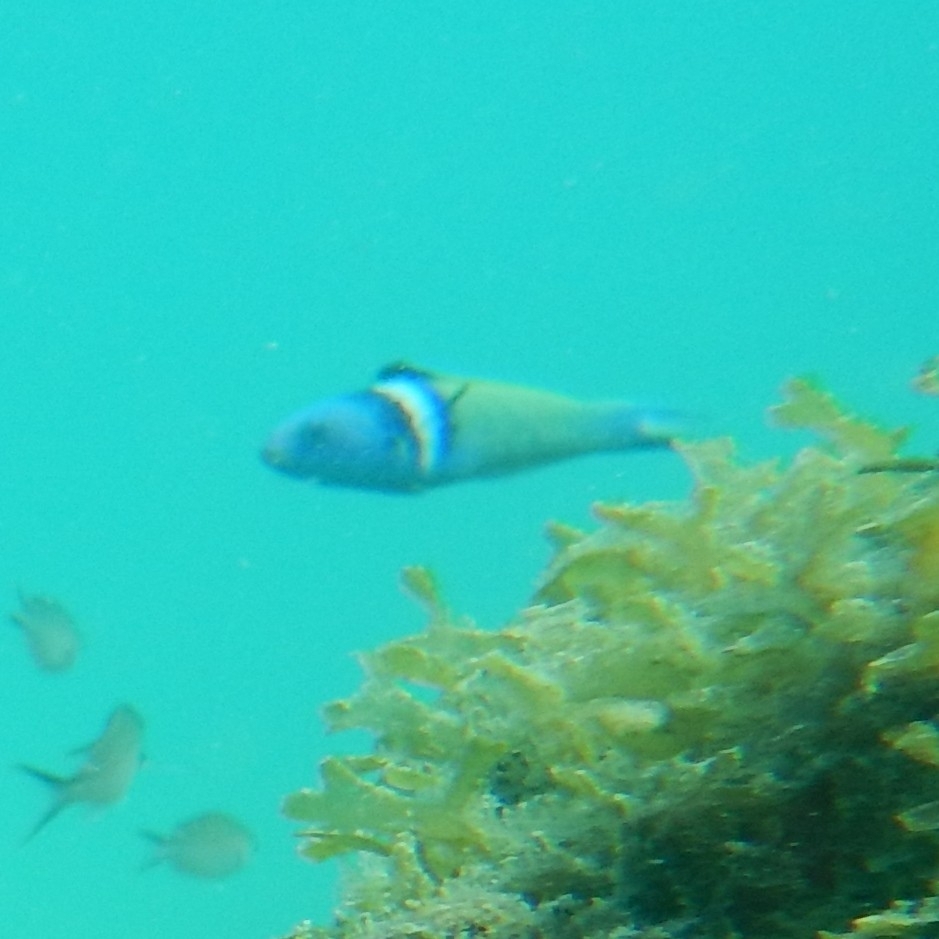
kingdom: Animalia
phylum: Chordata
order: Perciformes
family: Labridae
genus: Thalassoma
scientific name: Thalassoma bifasciatum
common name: Bluehead wrasse
